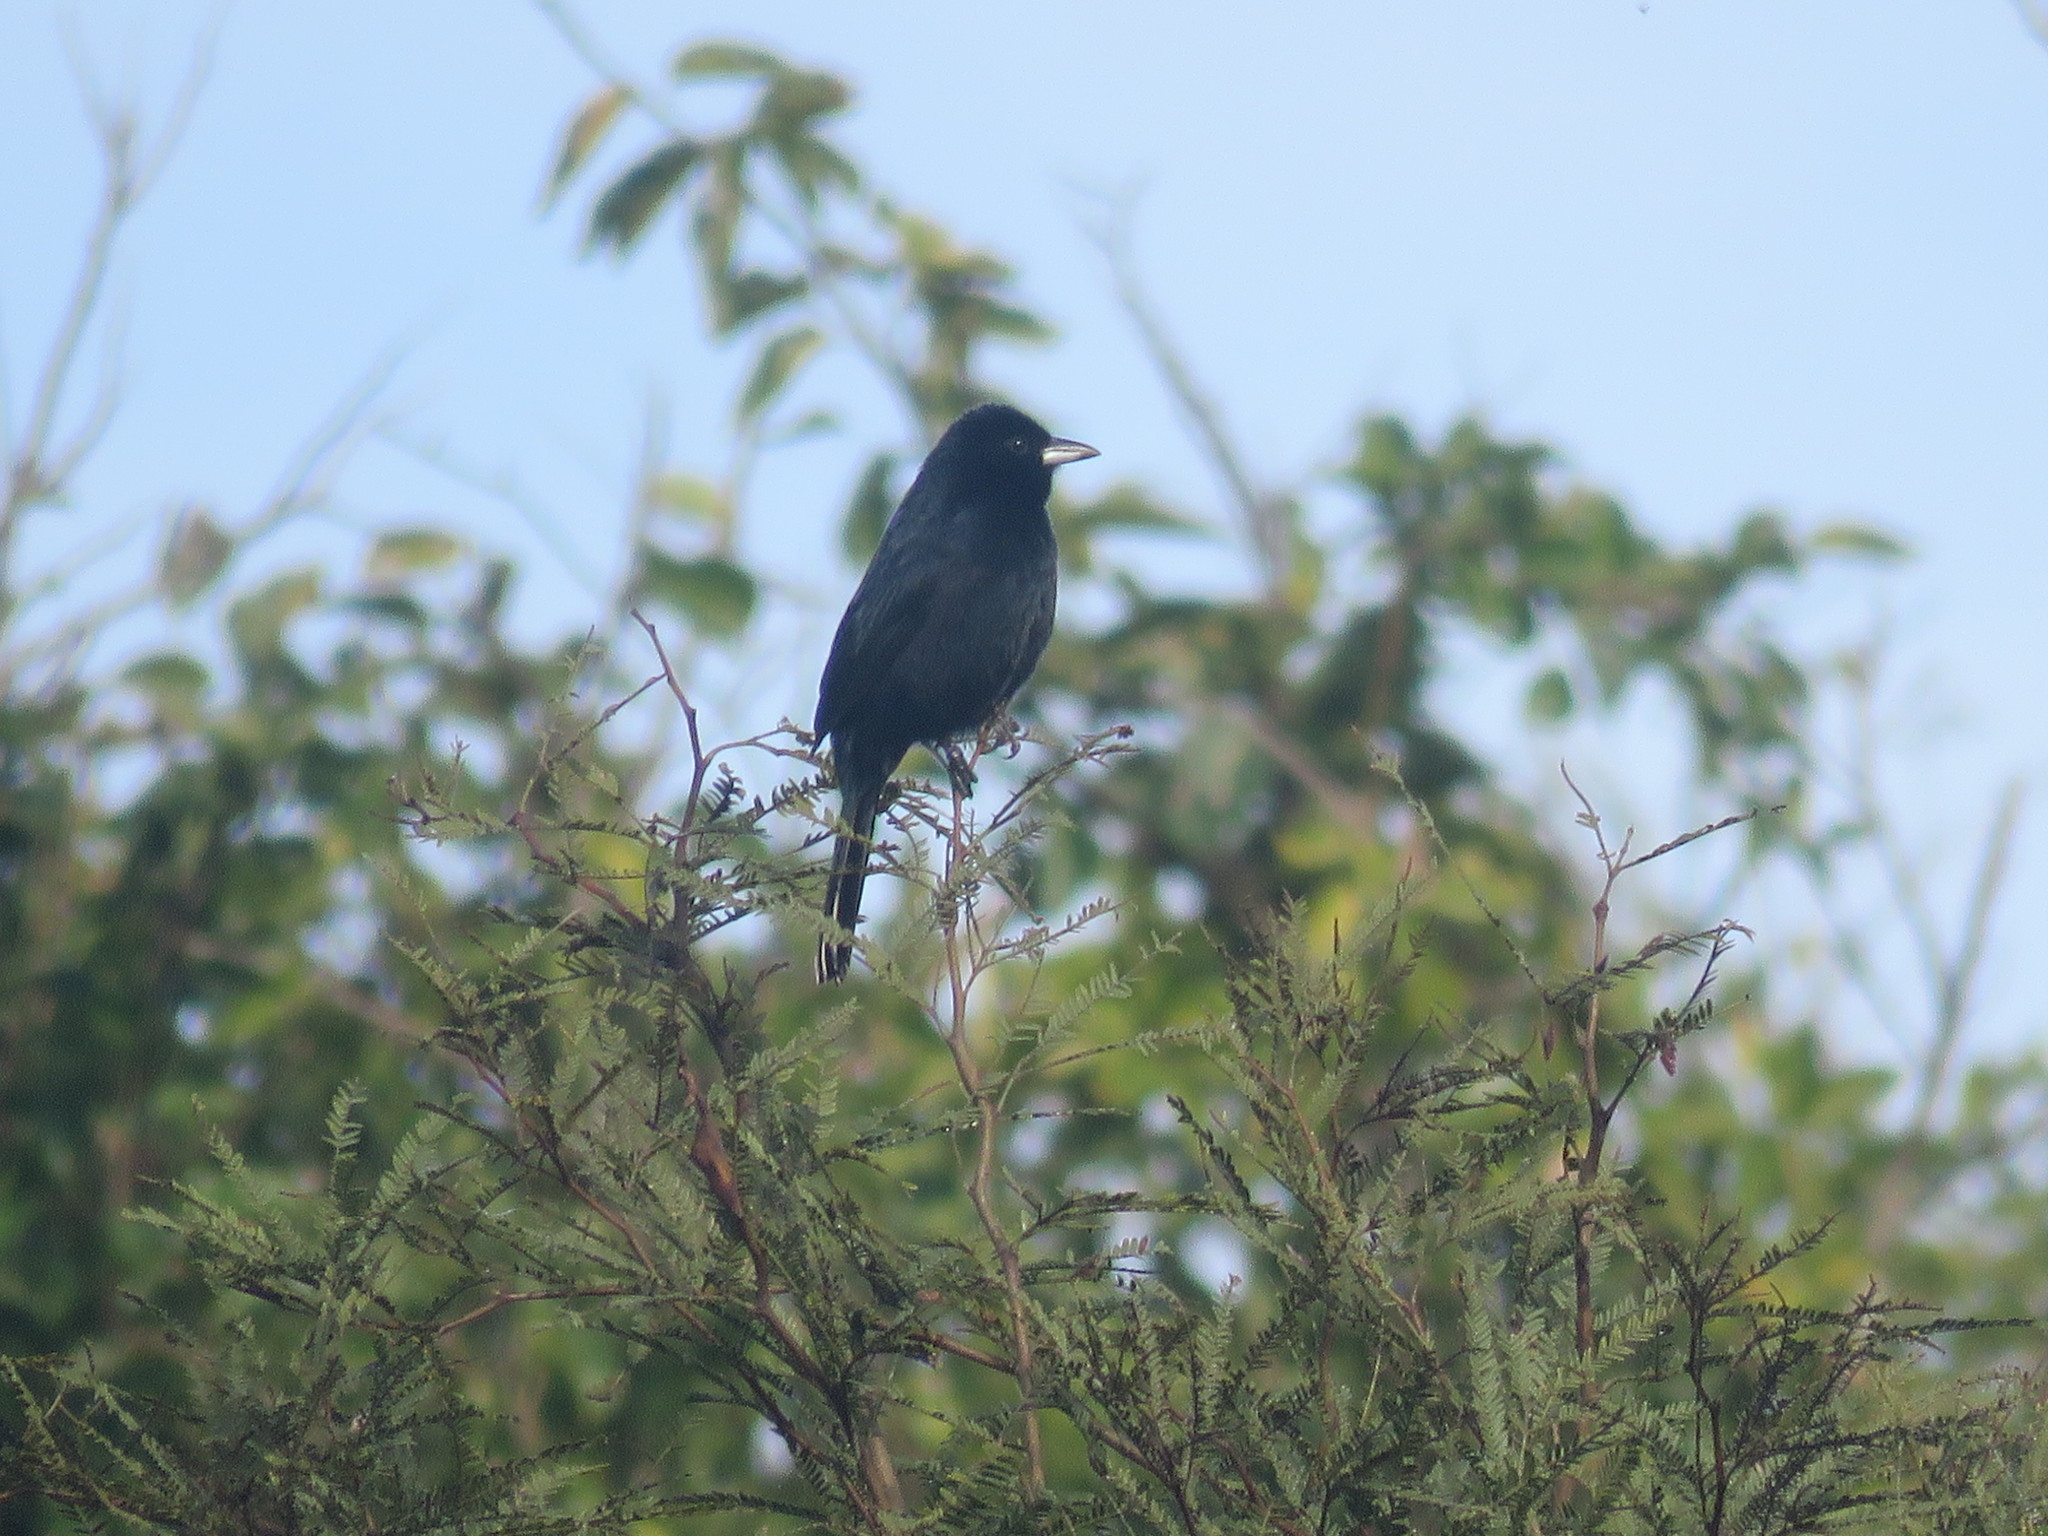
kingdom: Animalia
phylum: Chordata
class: Aves
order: Passeriformes
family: Thraupidae
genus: Tachyphonus
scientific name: Tachyphonus rufus
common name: White-lined tanager
